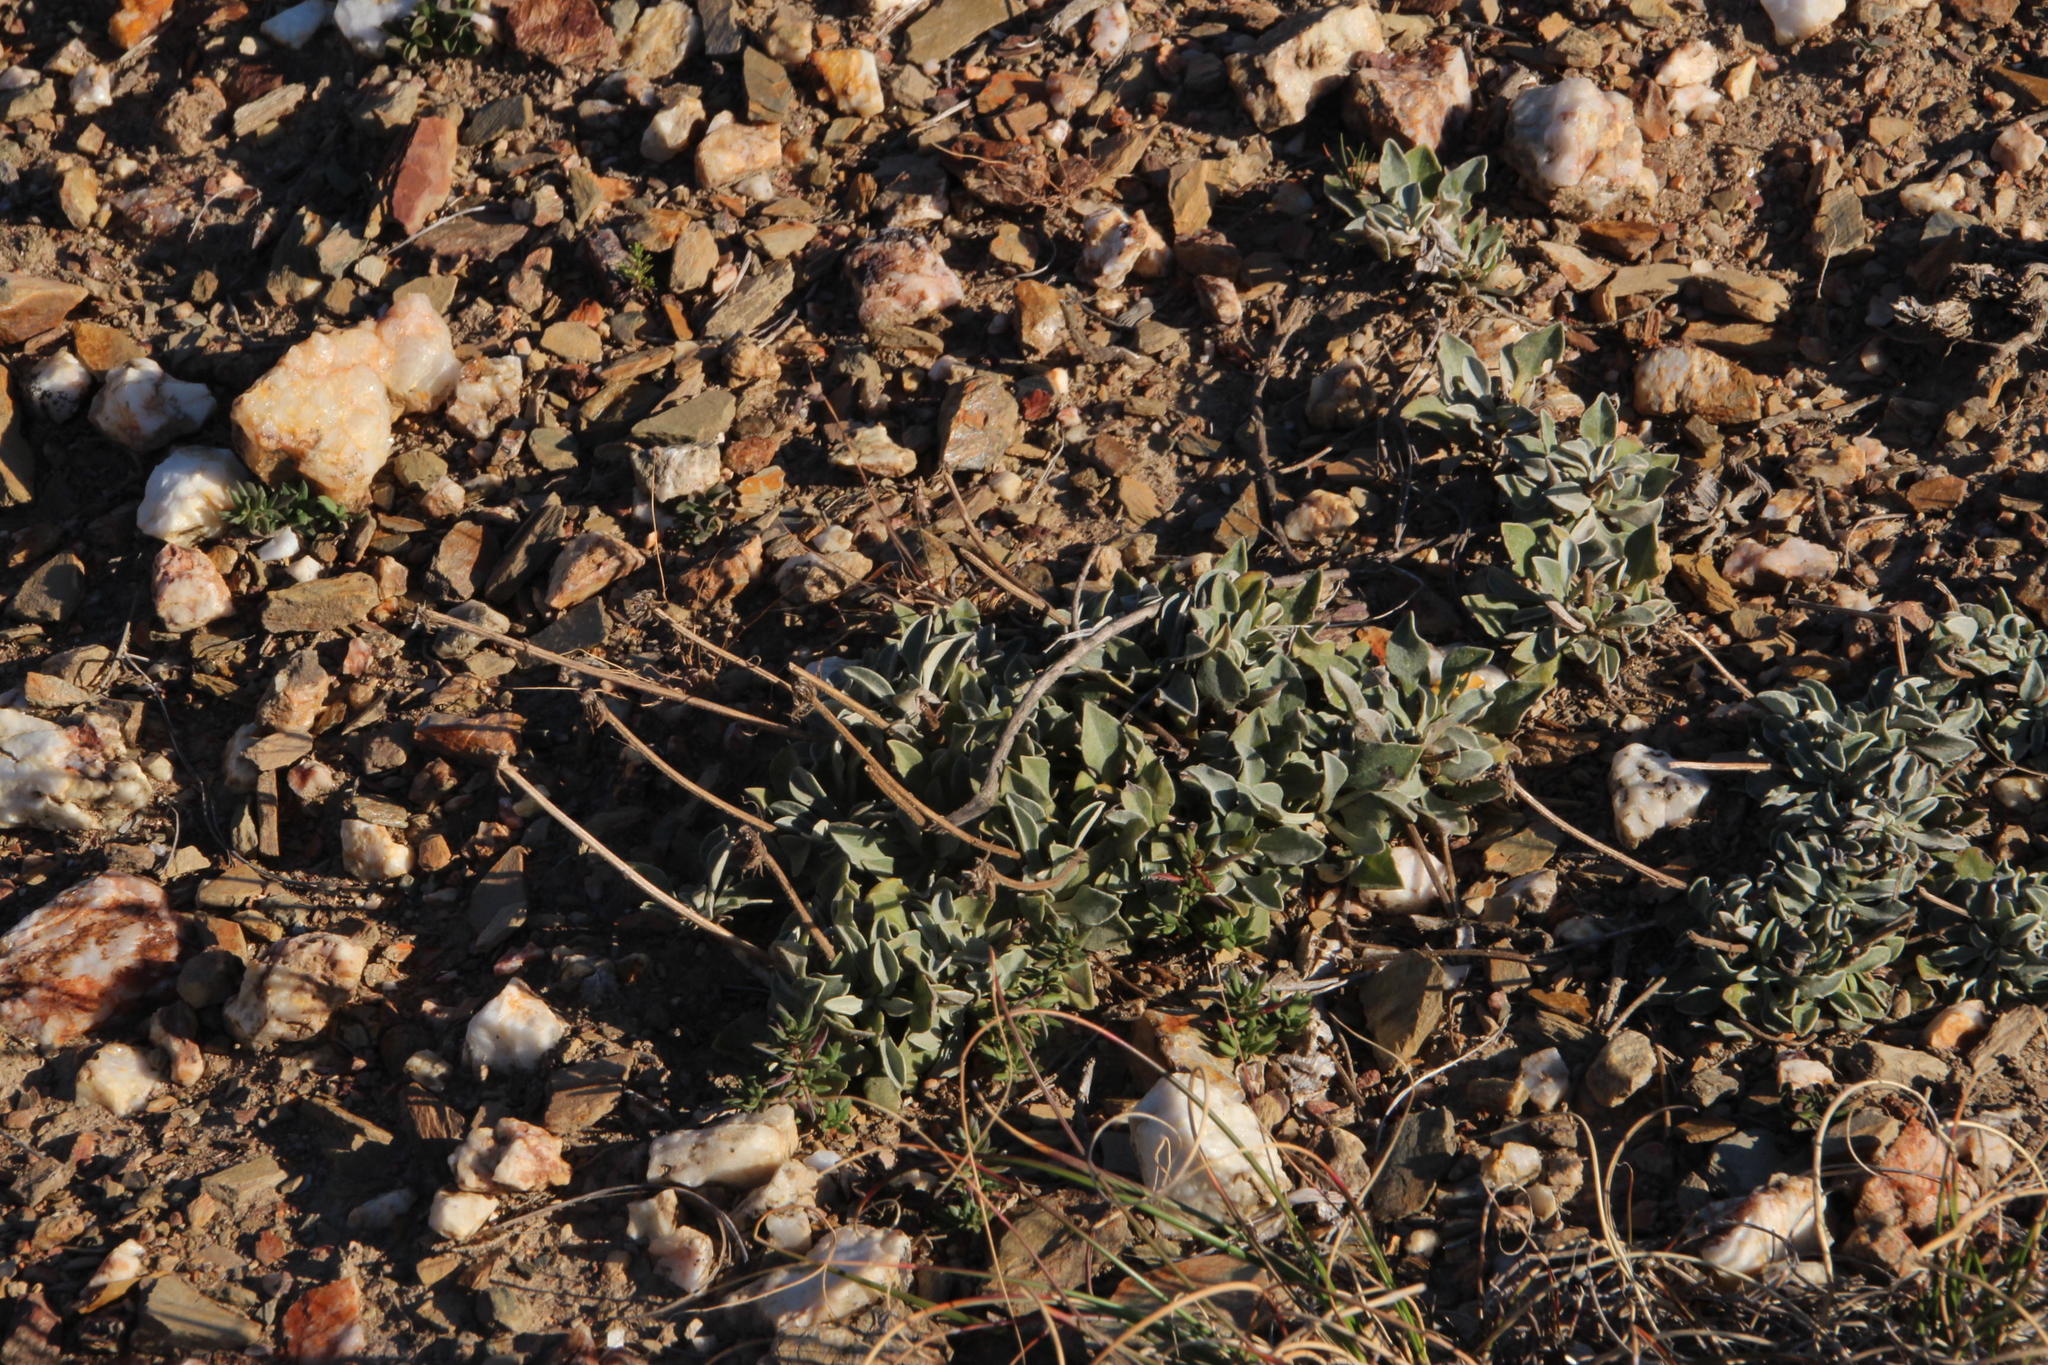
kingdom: Plantae
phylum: Tracheophyta
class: Magnoliopsida
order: Asterales
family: Asteraceae
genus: Osteospermum
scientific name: Osteospermum tomentosum
